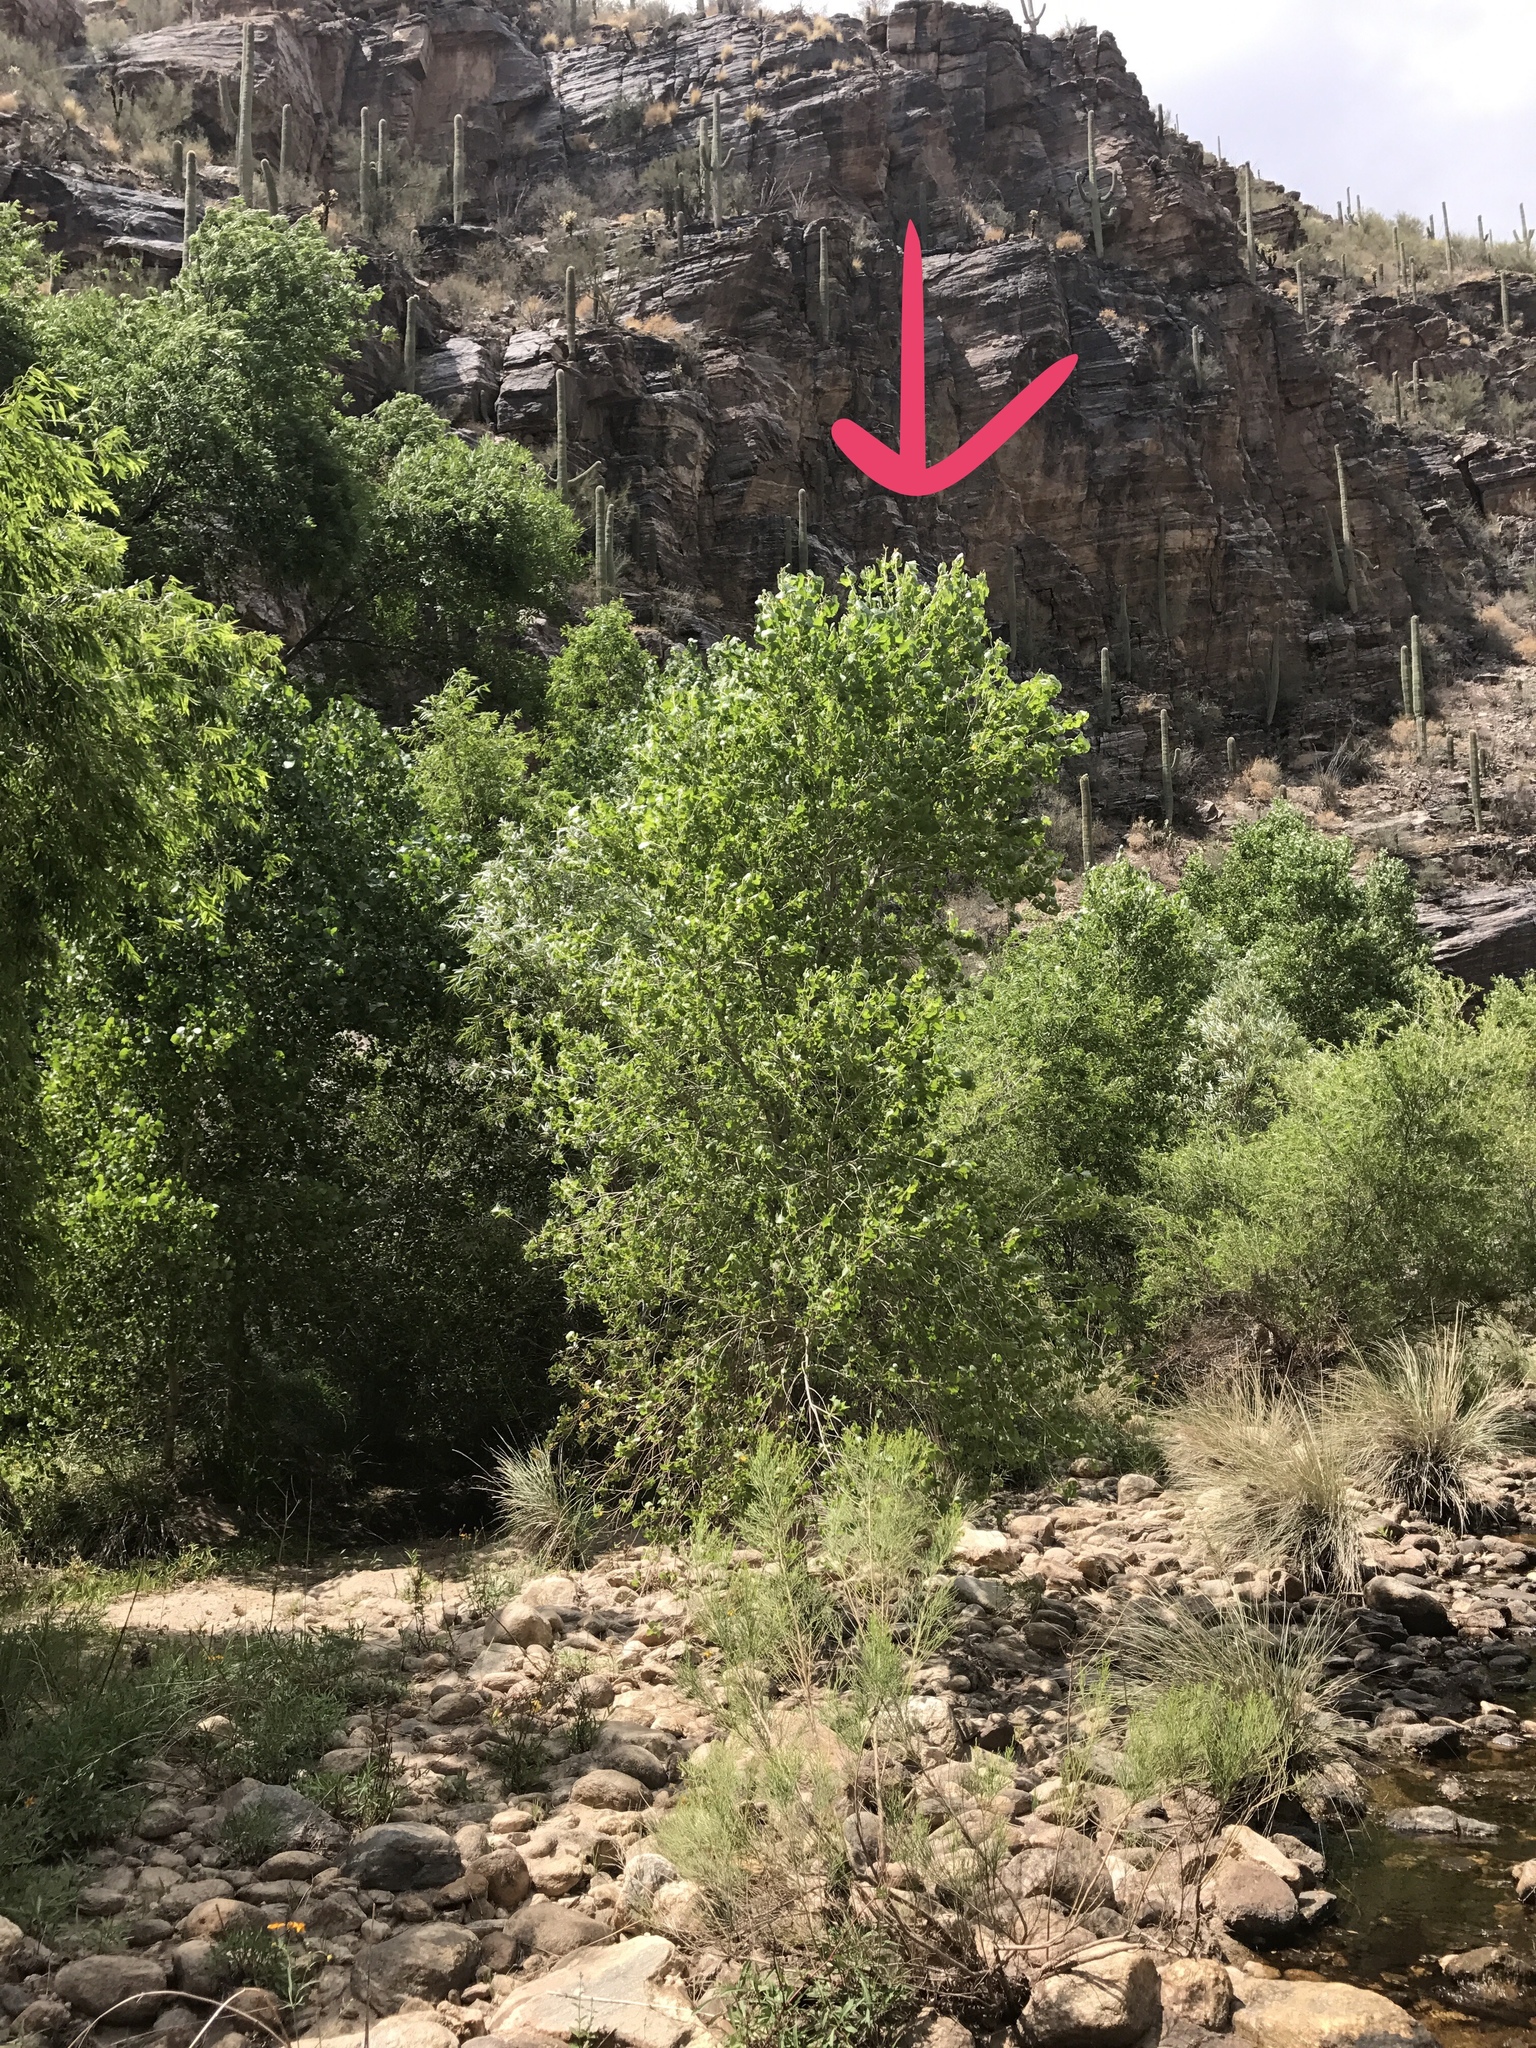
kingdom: Plantae
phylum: Tracheophyta
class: Magnoliopsida
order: Malpighiales
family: Salicaceae
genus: Populus
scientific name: Populus fremontii
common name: Fremont's cottonwood
